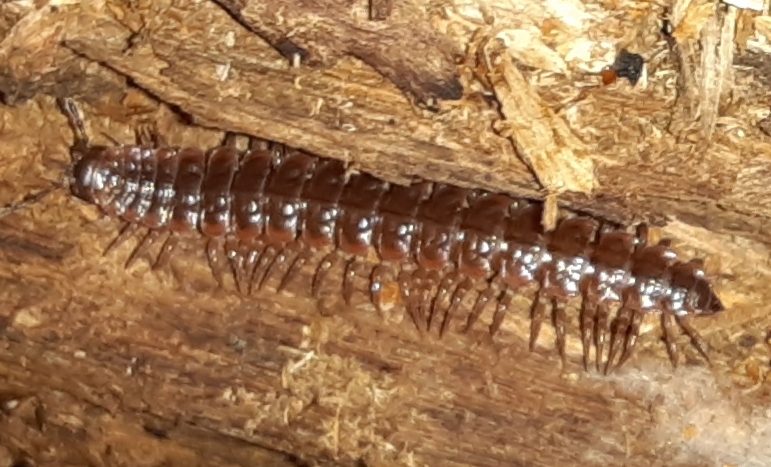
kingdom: Animalia
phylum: Arthropoda
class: Diplopoda
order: Polydesmida
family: Polydesmidae
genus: Pseudopolydesmus
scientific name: Pseudopolydesmus serratus
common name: Common pink flat-back millipede
